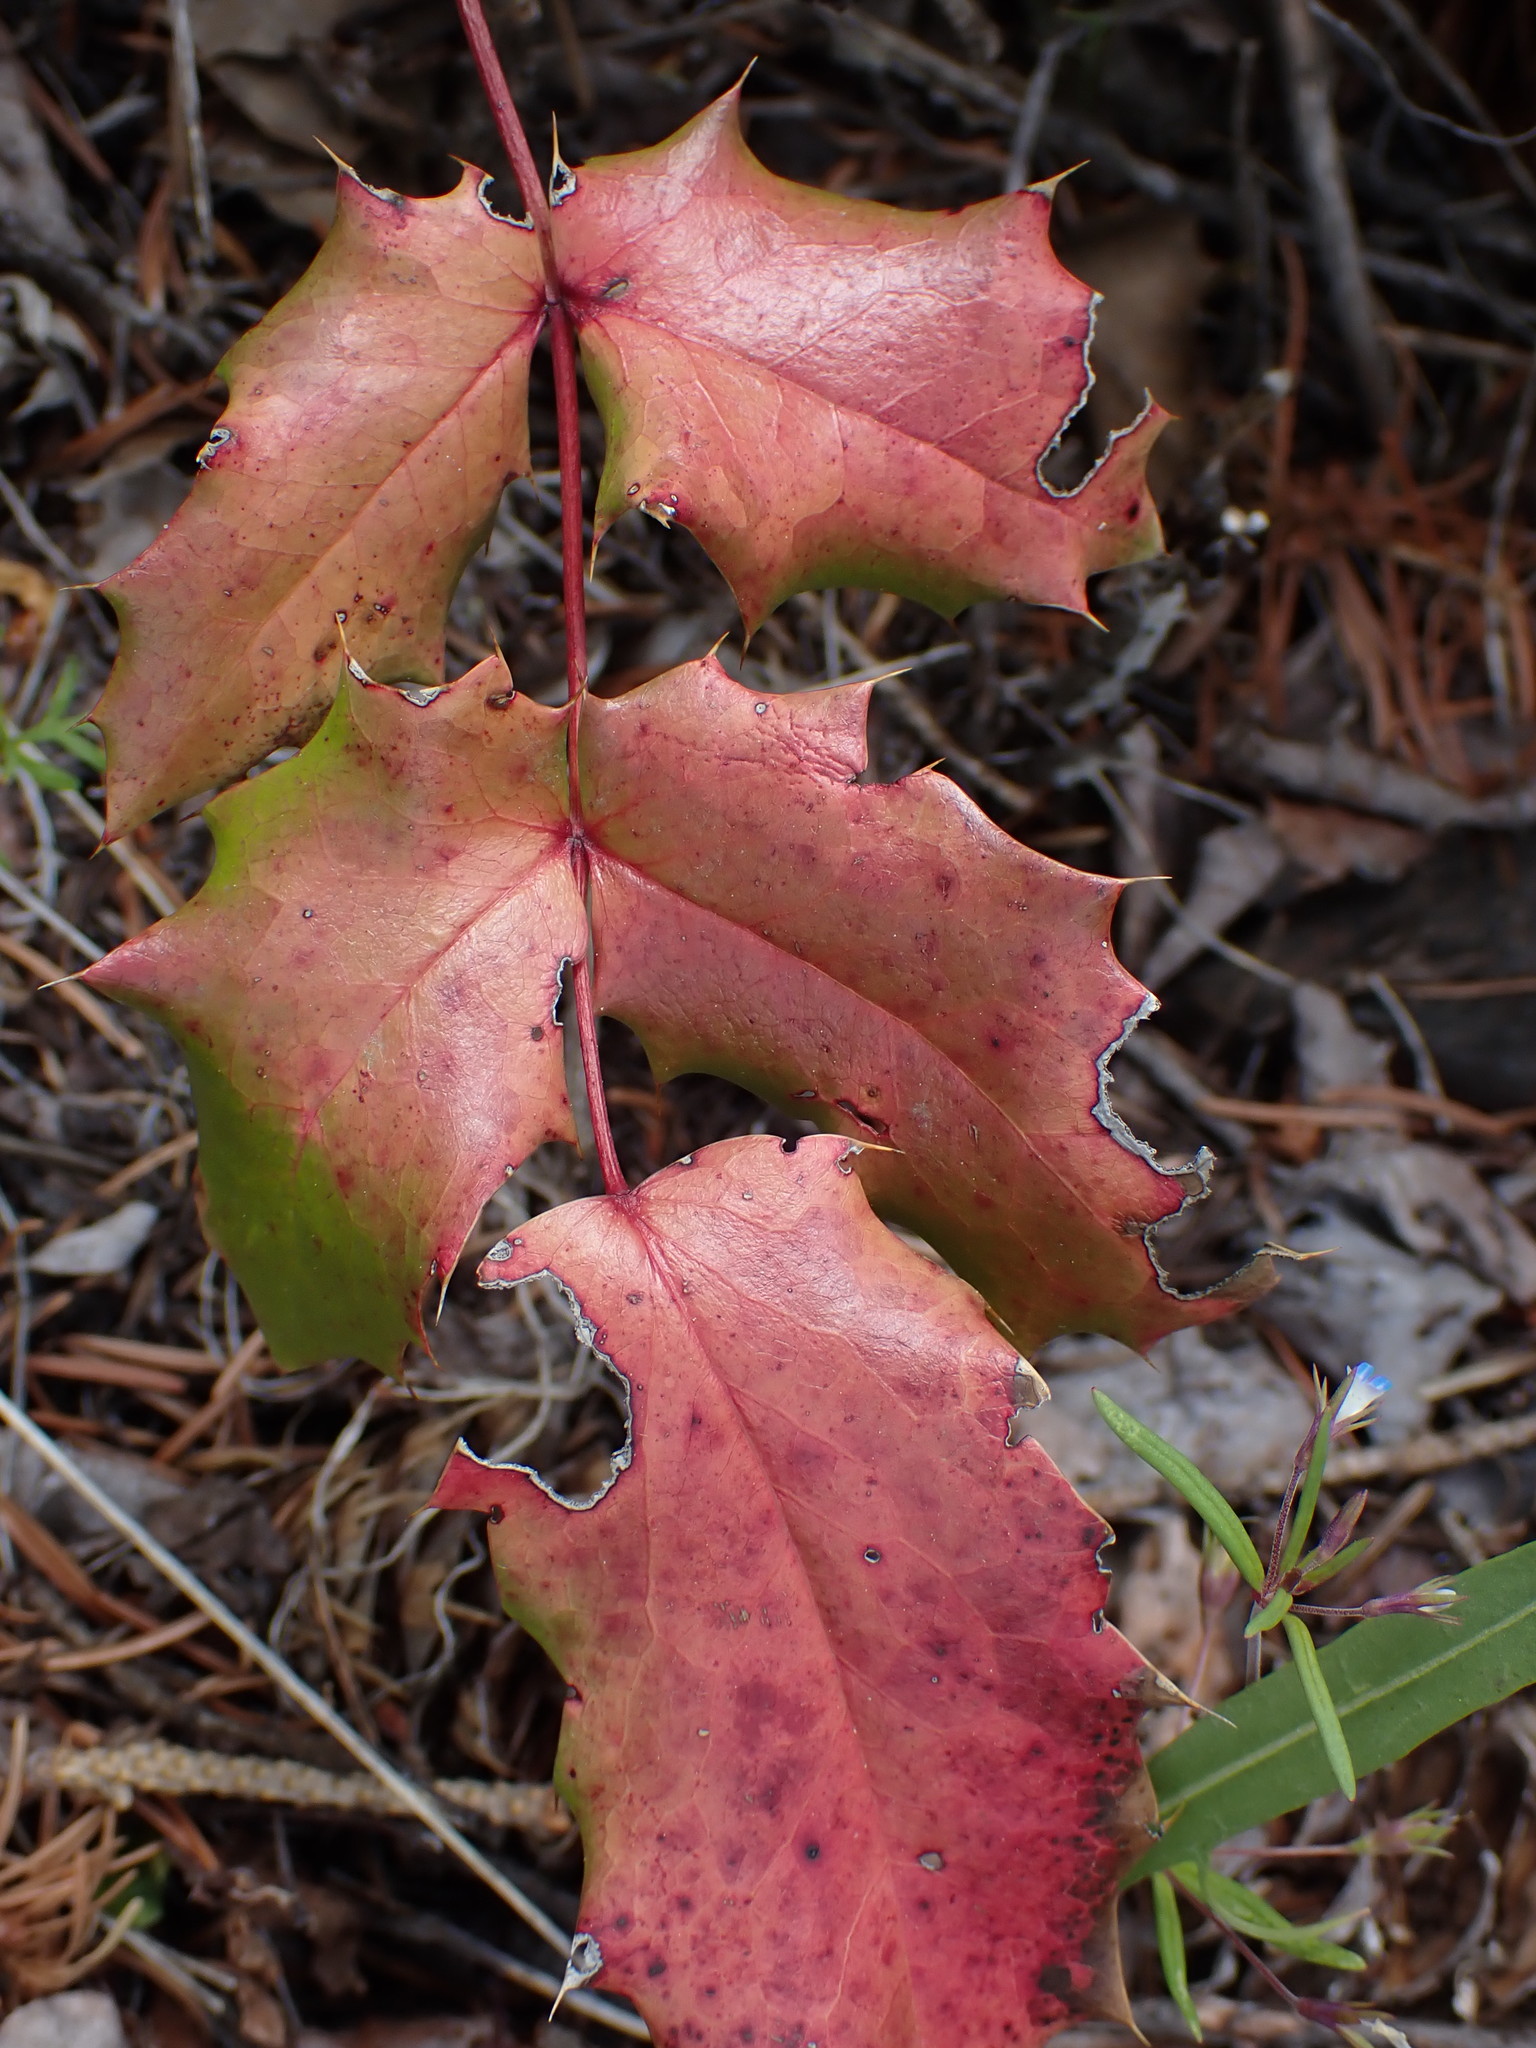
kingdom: Plantae
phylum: Tracheophyta
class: Magnoliopsida
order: Ranunculales
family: Berberidaceae
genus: Mahonia
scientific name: Mahonia aquifolium
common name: Oregon-grape
